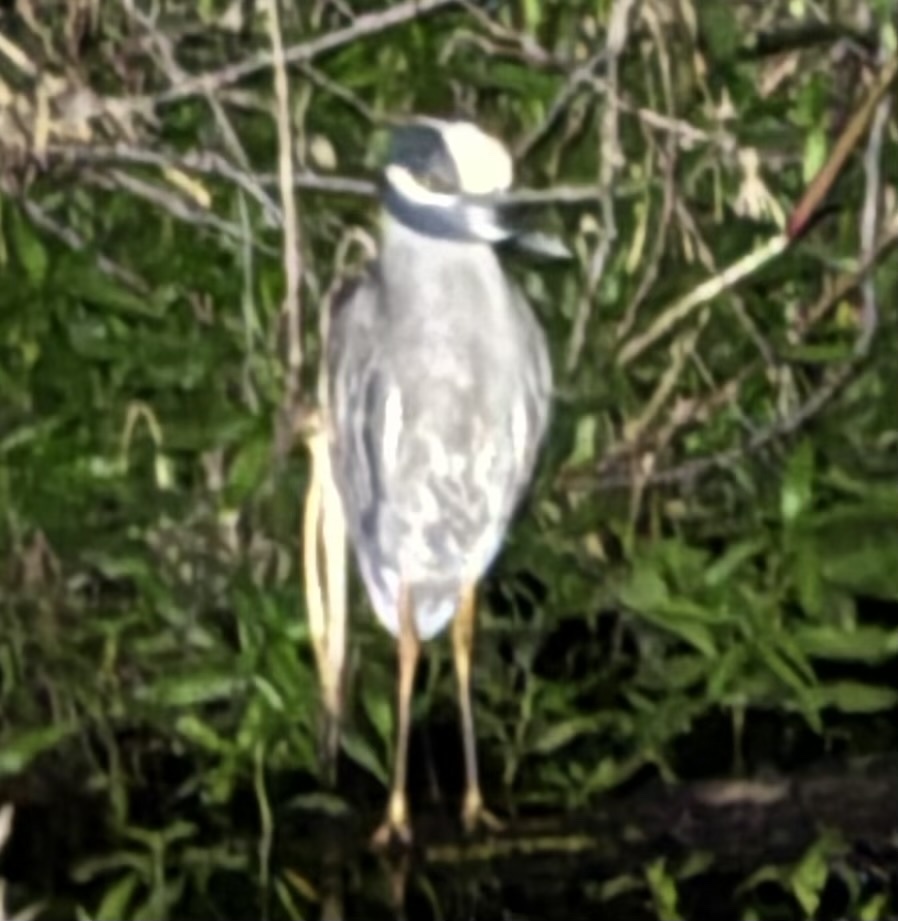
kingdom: Animalia
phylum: Chordata
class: Aves
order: Pelecaniformes
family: Ardeidae
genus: Nyctanassa
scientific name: Nyctanassa violacea
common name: Yellow-crowned night heron
